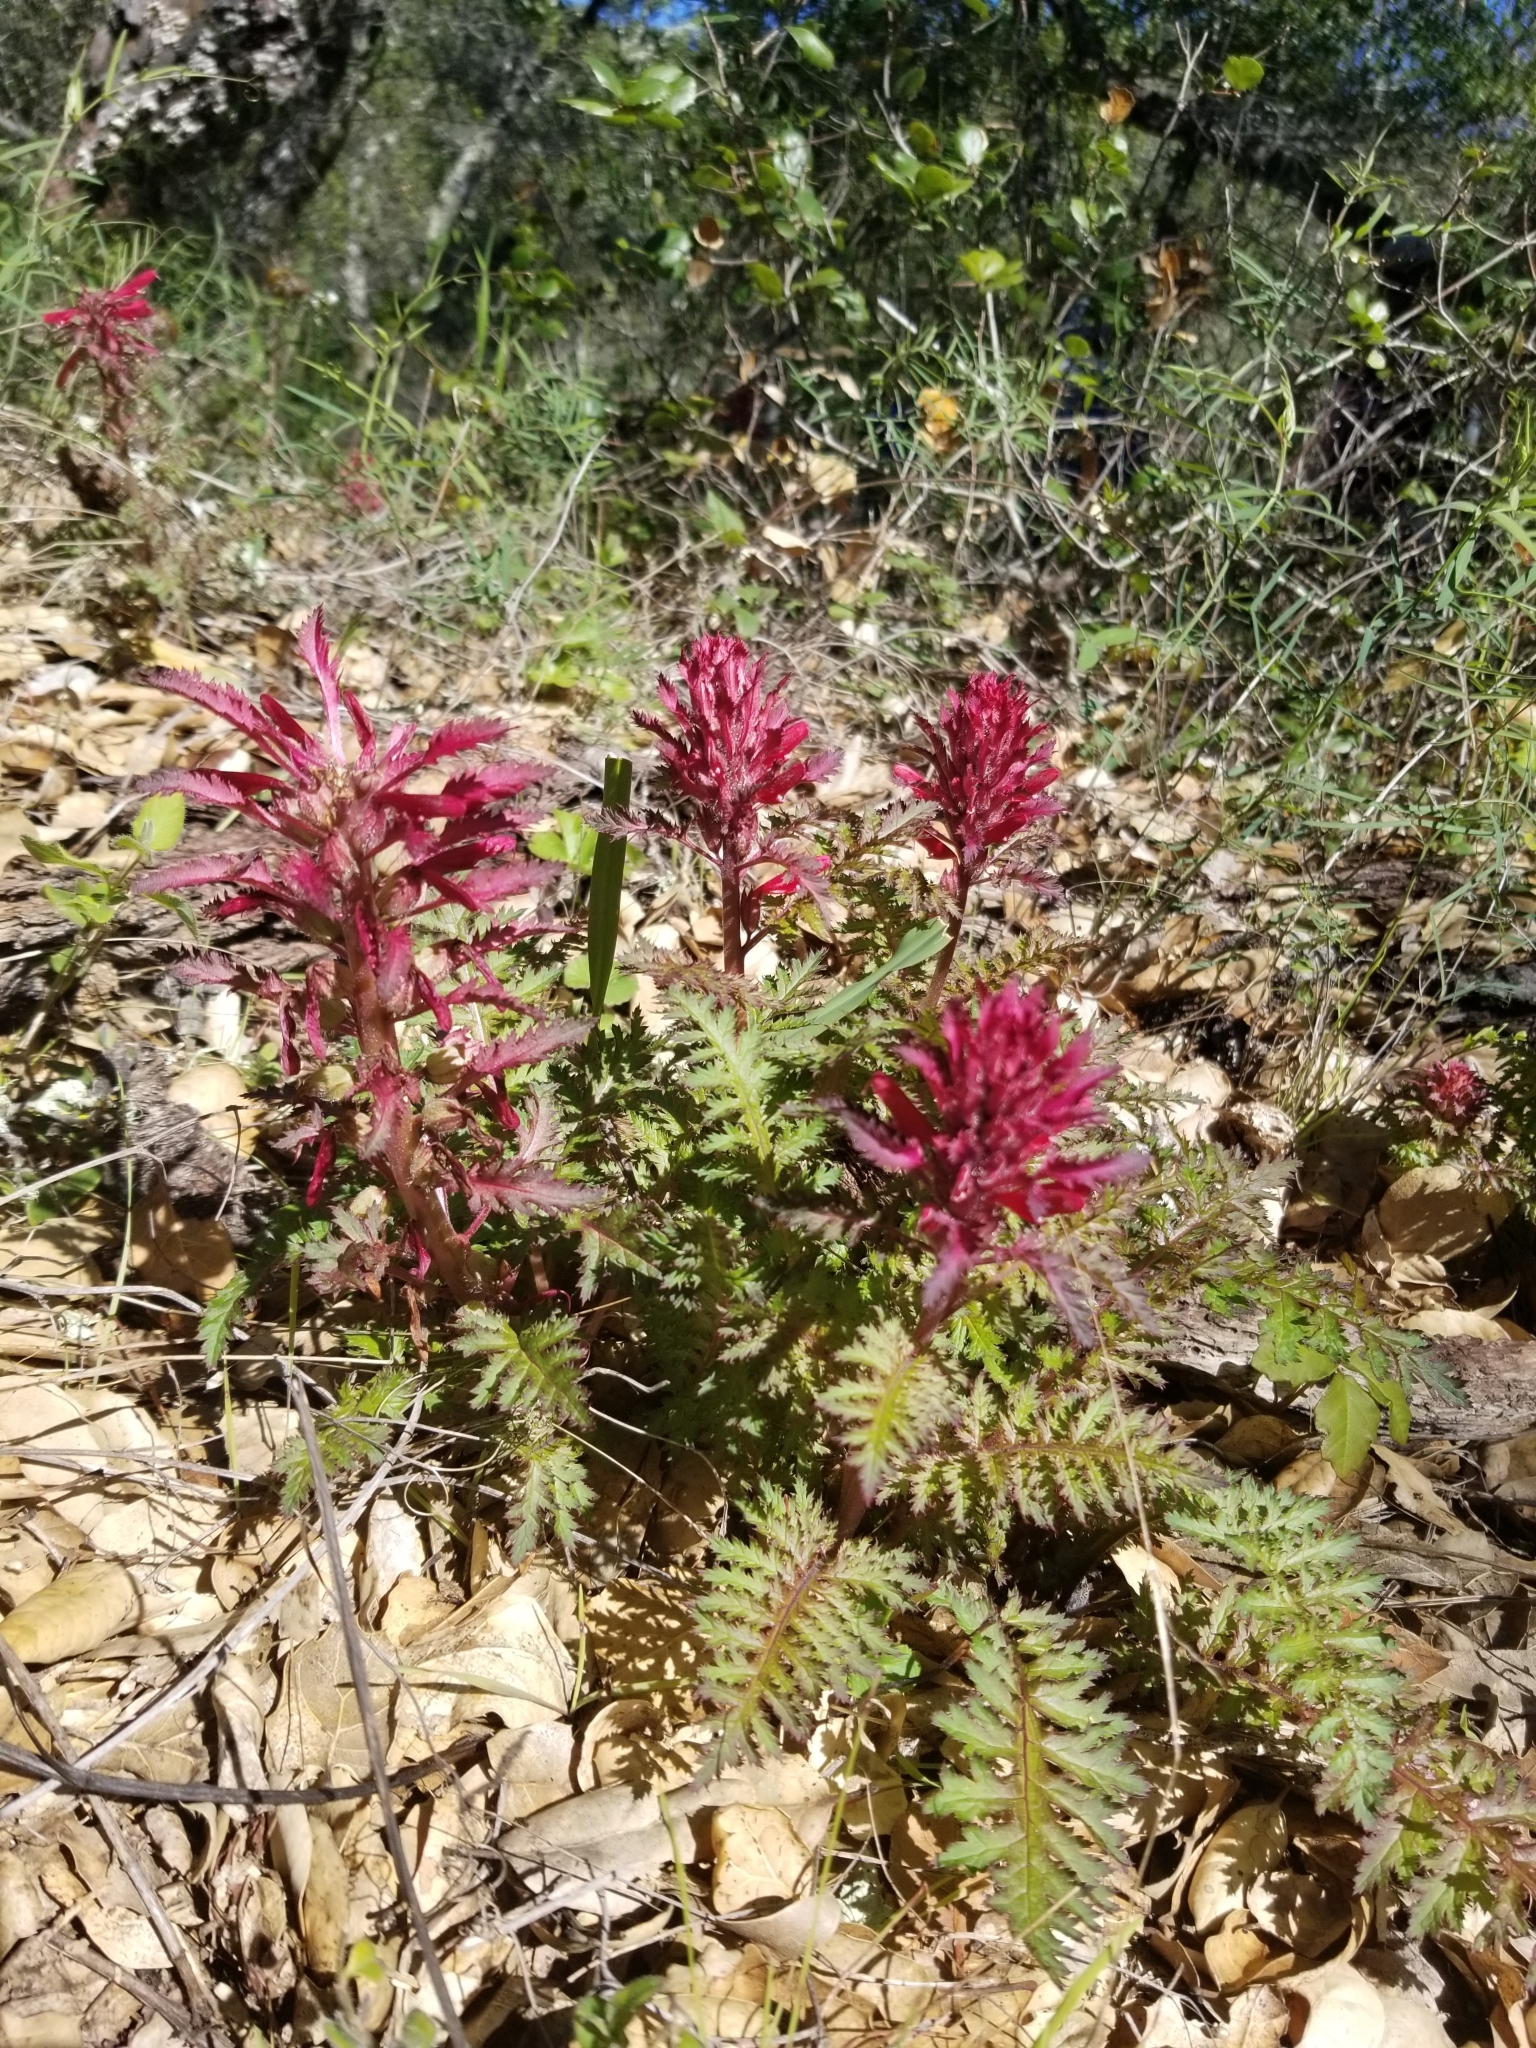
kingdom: Plantae
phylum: Tracheophyta
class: Magnoliopsida
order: Lamiales
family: Orobanchaceae
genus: Pedicularis
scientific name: Pedicularis densiflora
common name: Indian warrior
